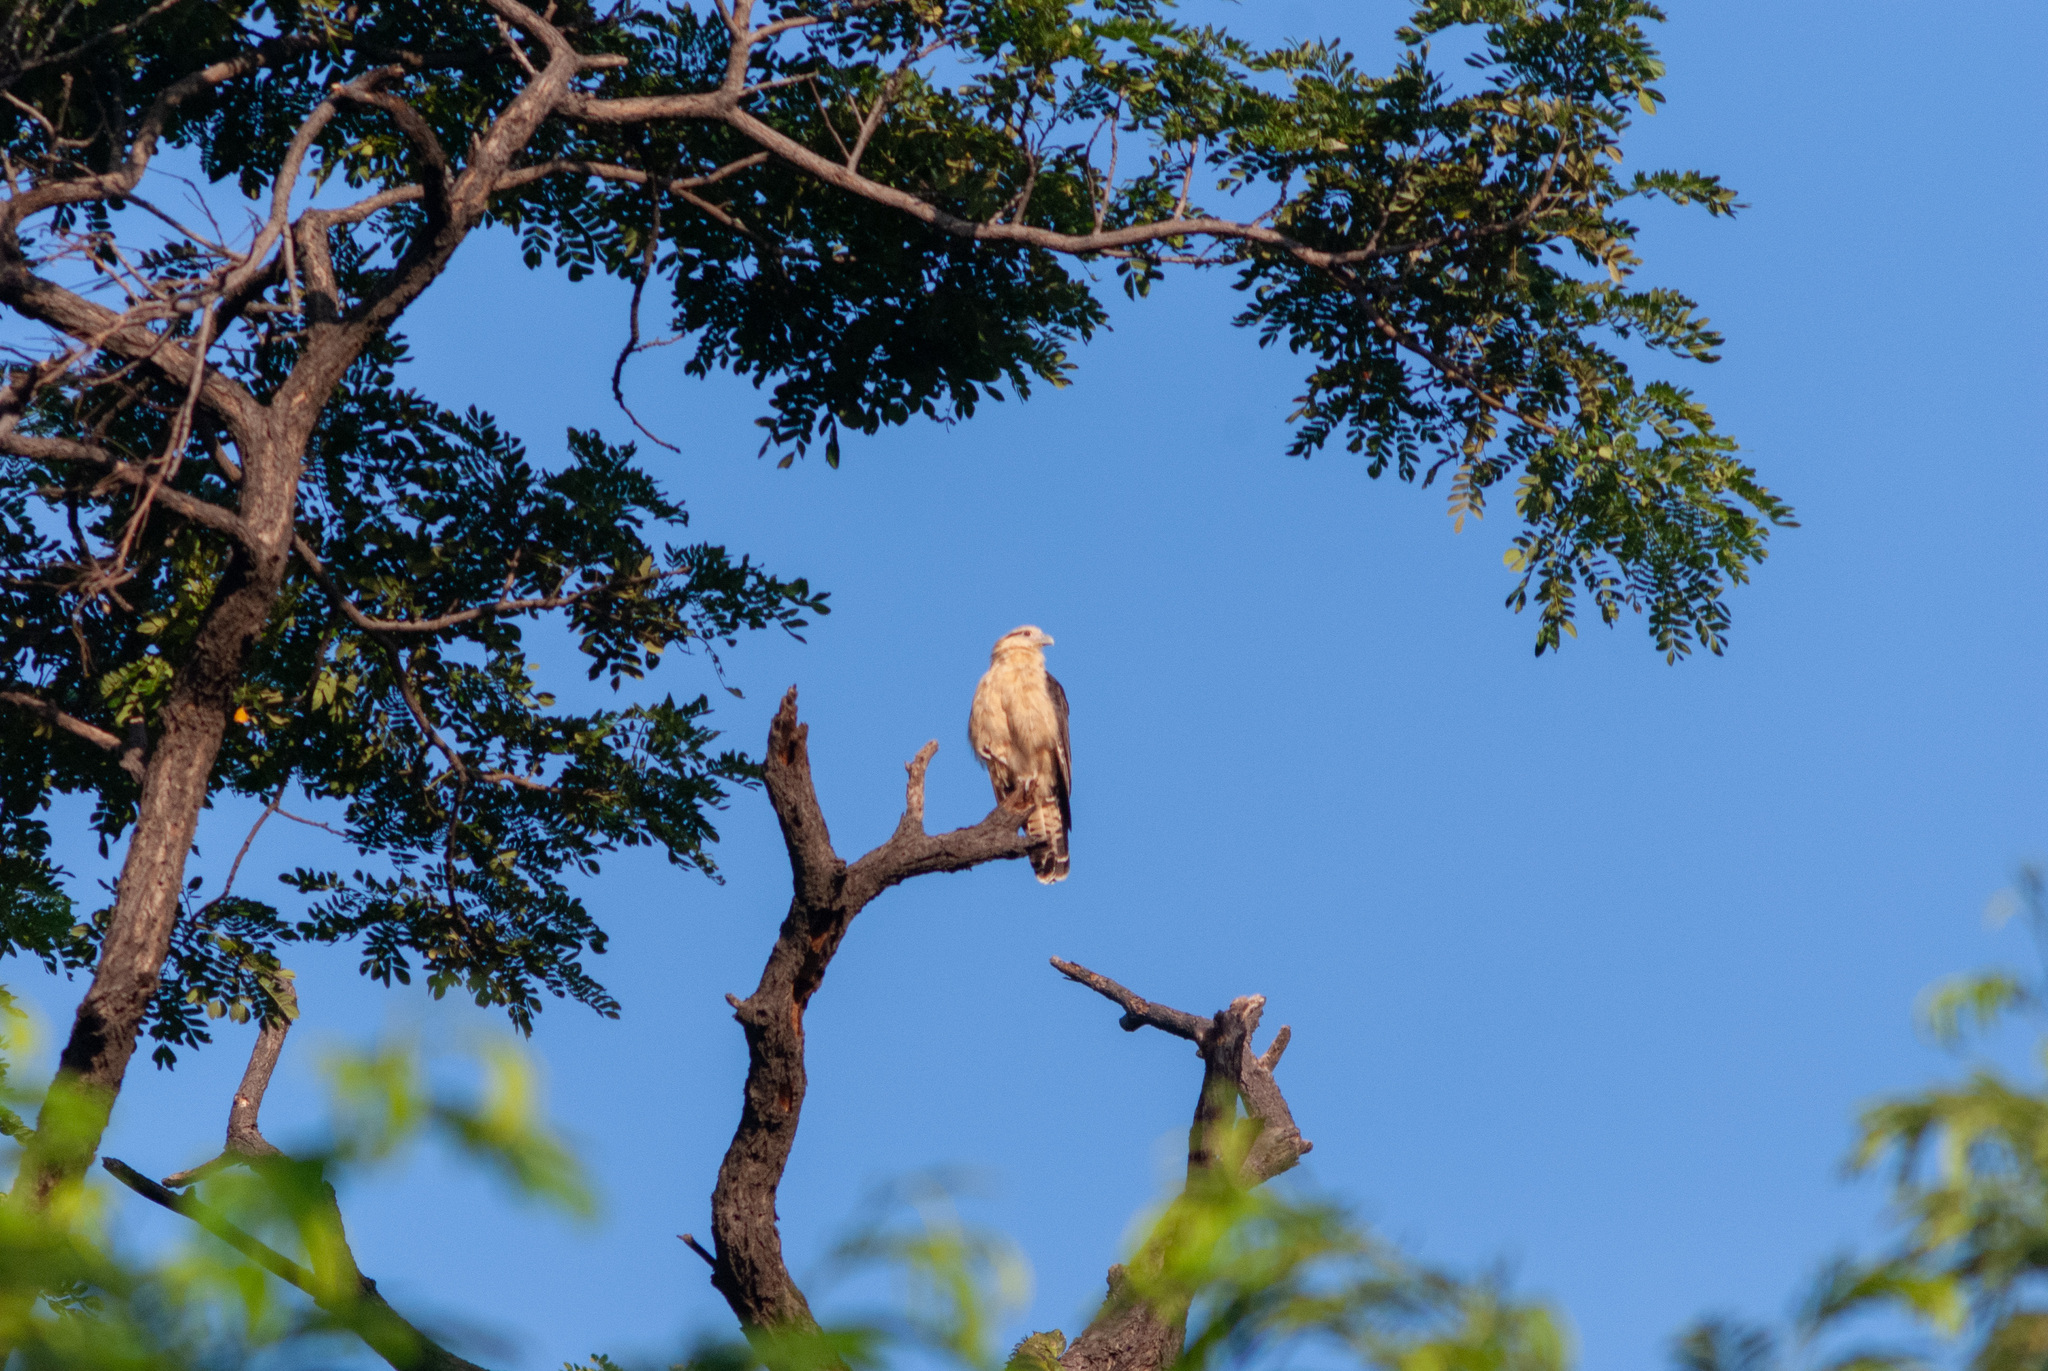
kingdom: Animalia
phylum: Chordata
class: Aves
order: Falconiformes
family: Falconidae
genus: Daptrius
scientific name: Daptrius
